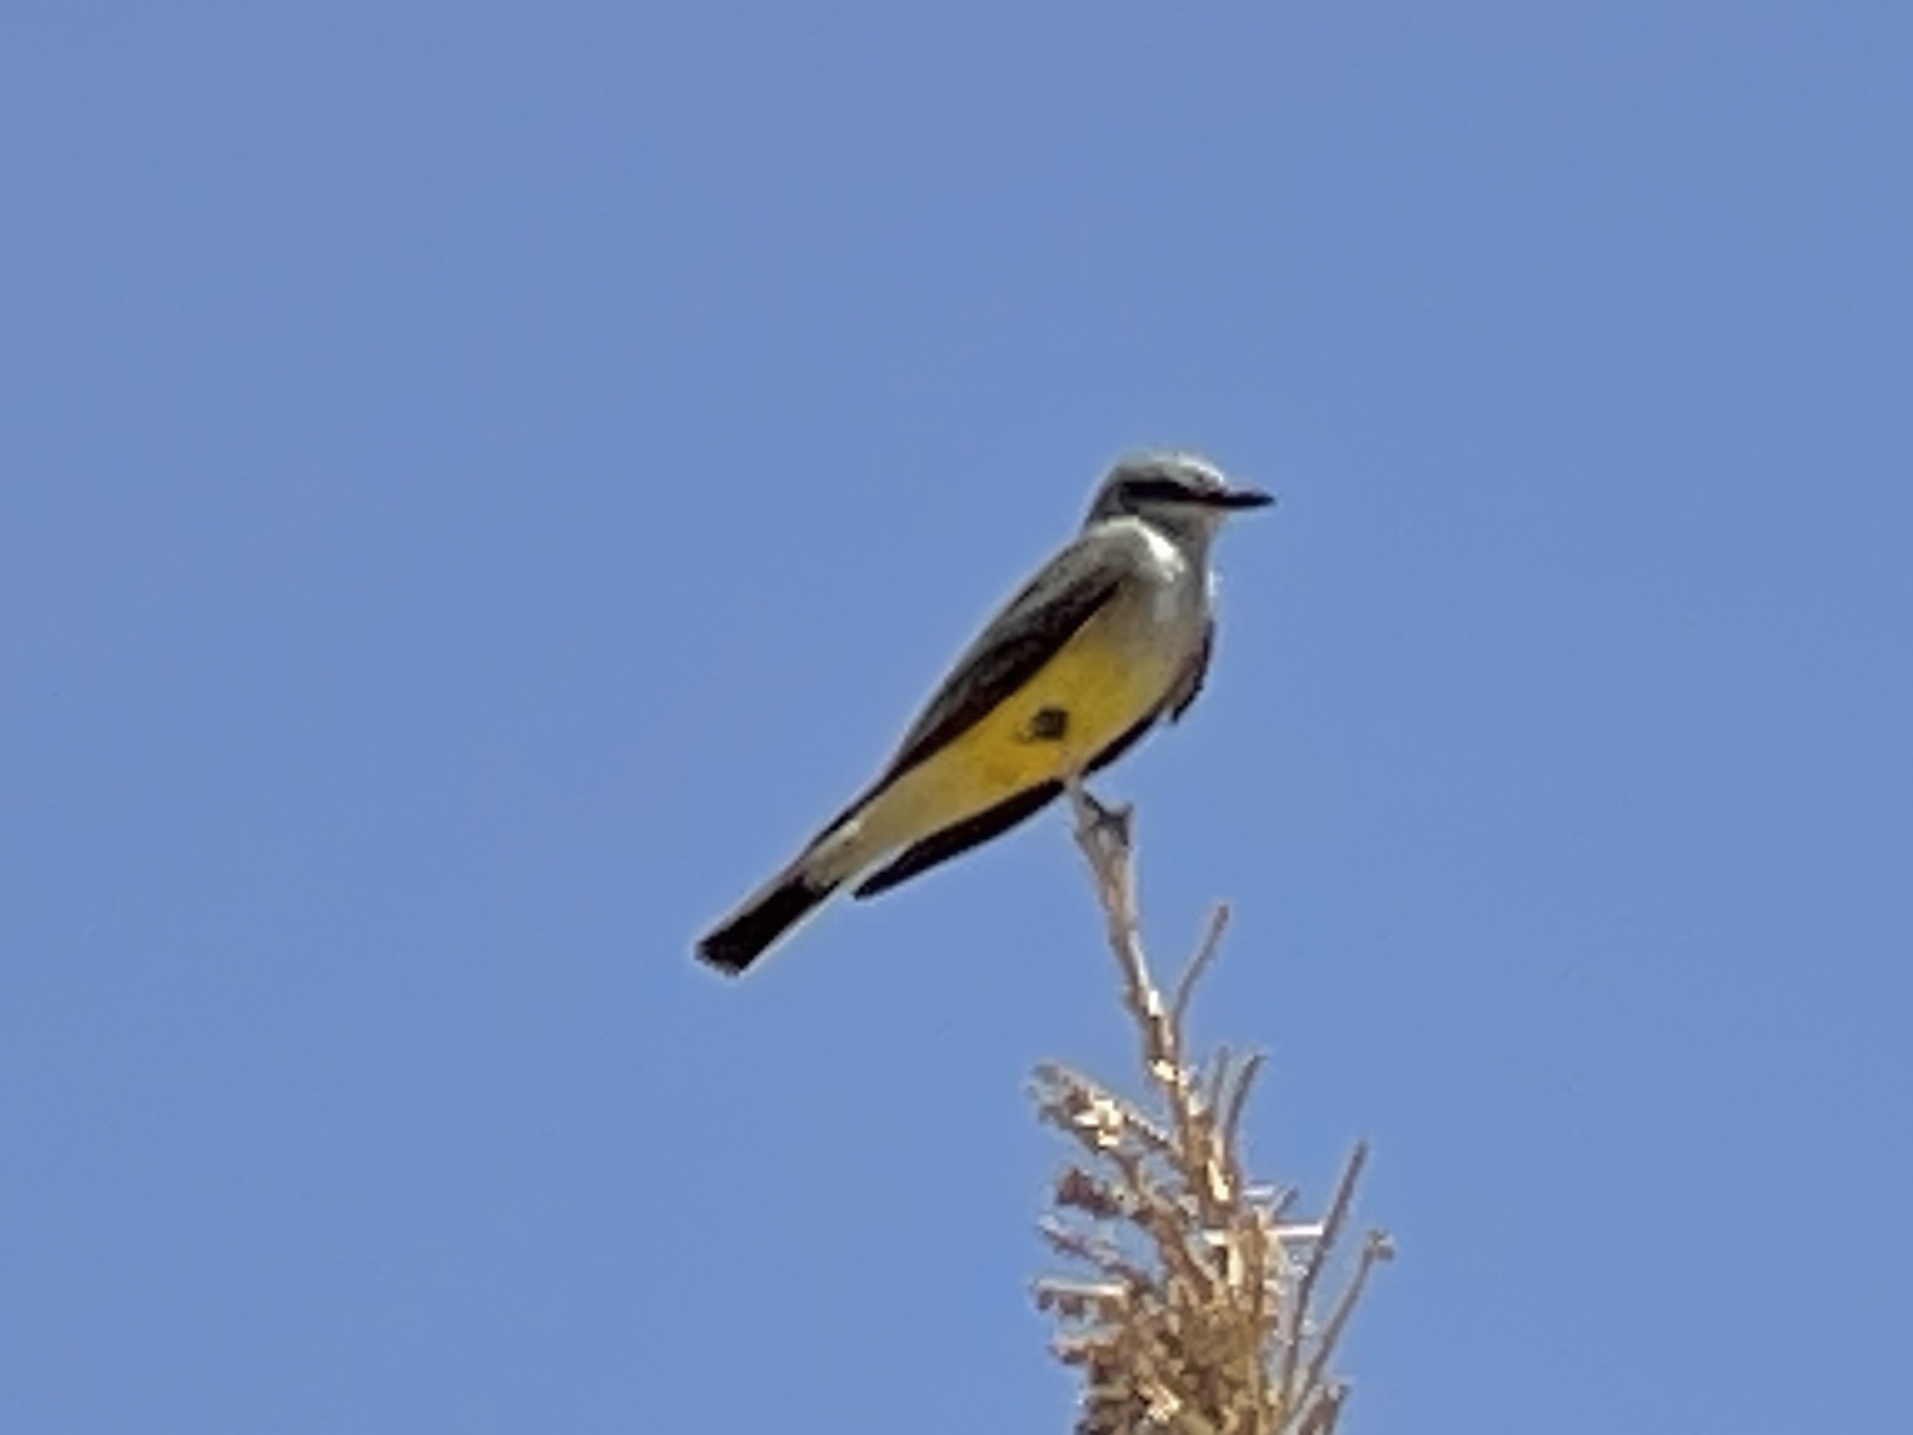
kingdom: Animalia
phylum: Chordata
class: Aves
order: Passeriformes
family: Tyrannidae
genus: Tyrannus
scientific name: Tyrannus verticalis
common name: Western kingbird
